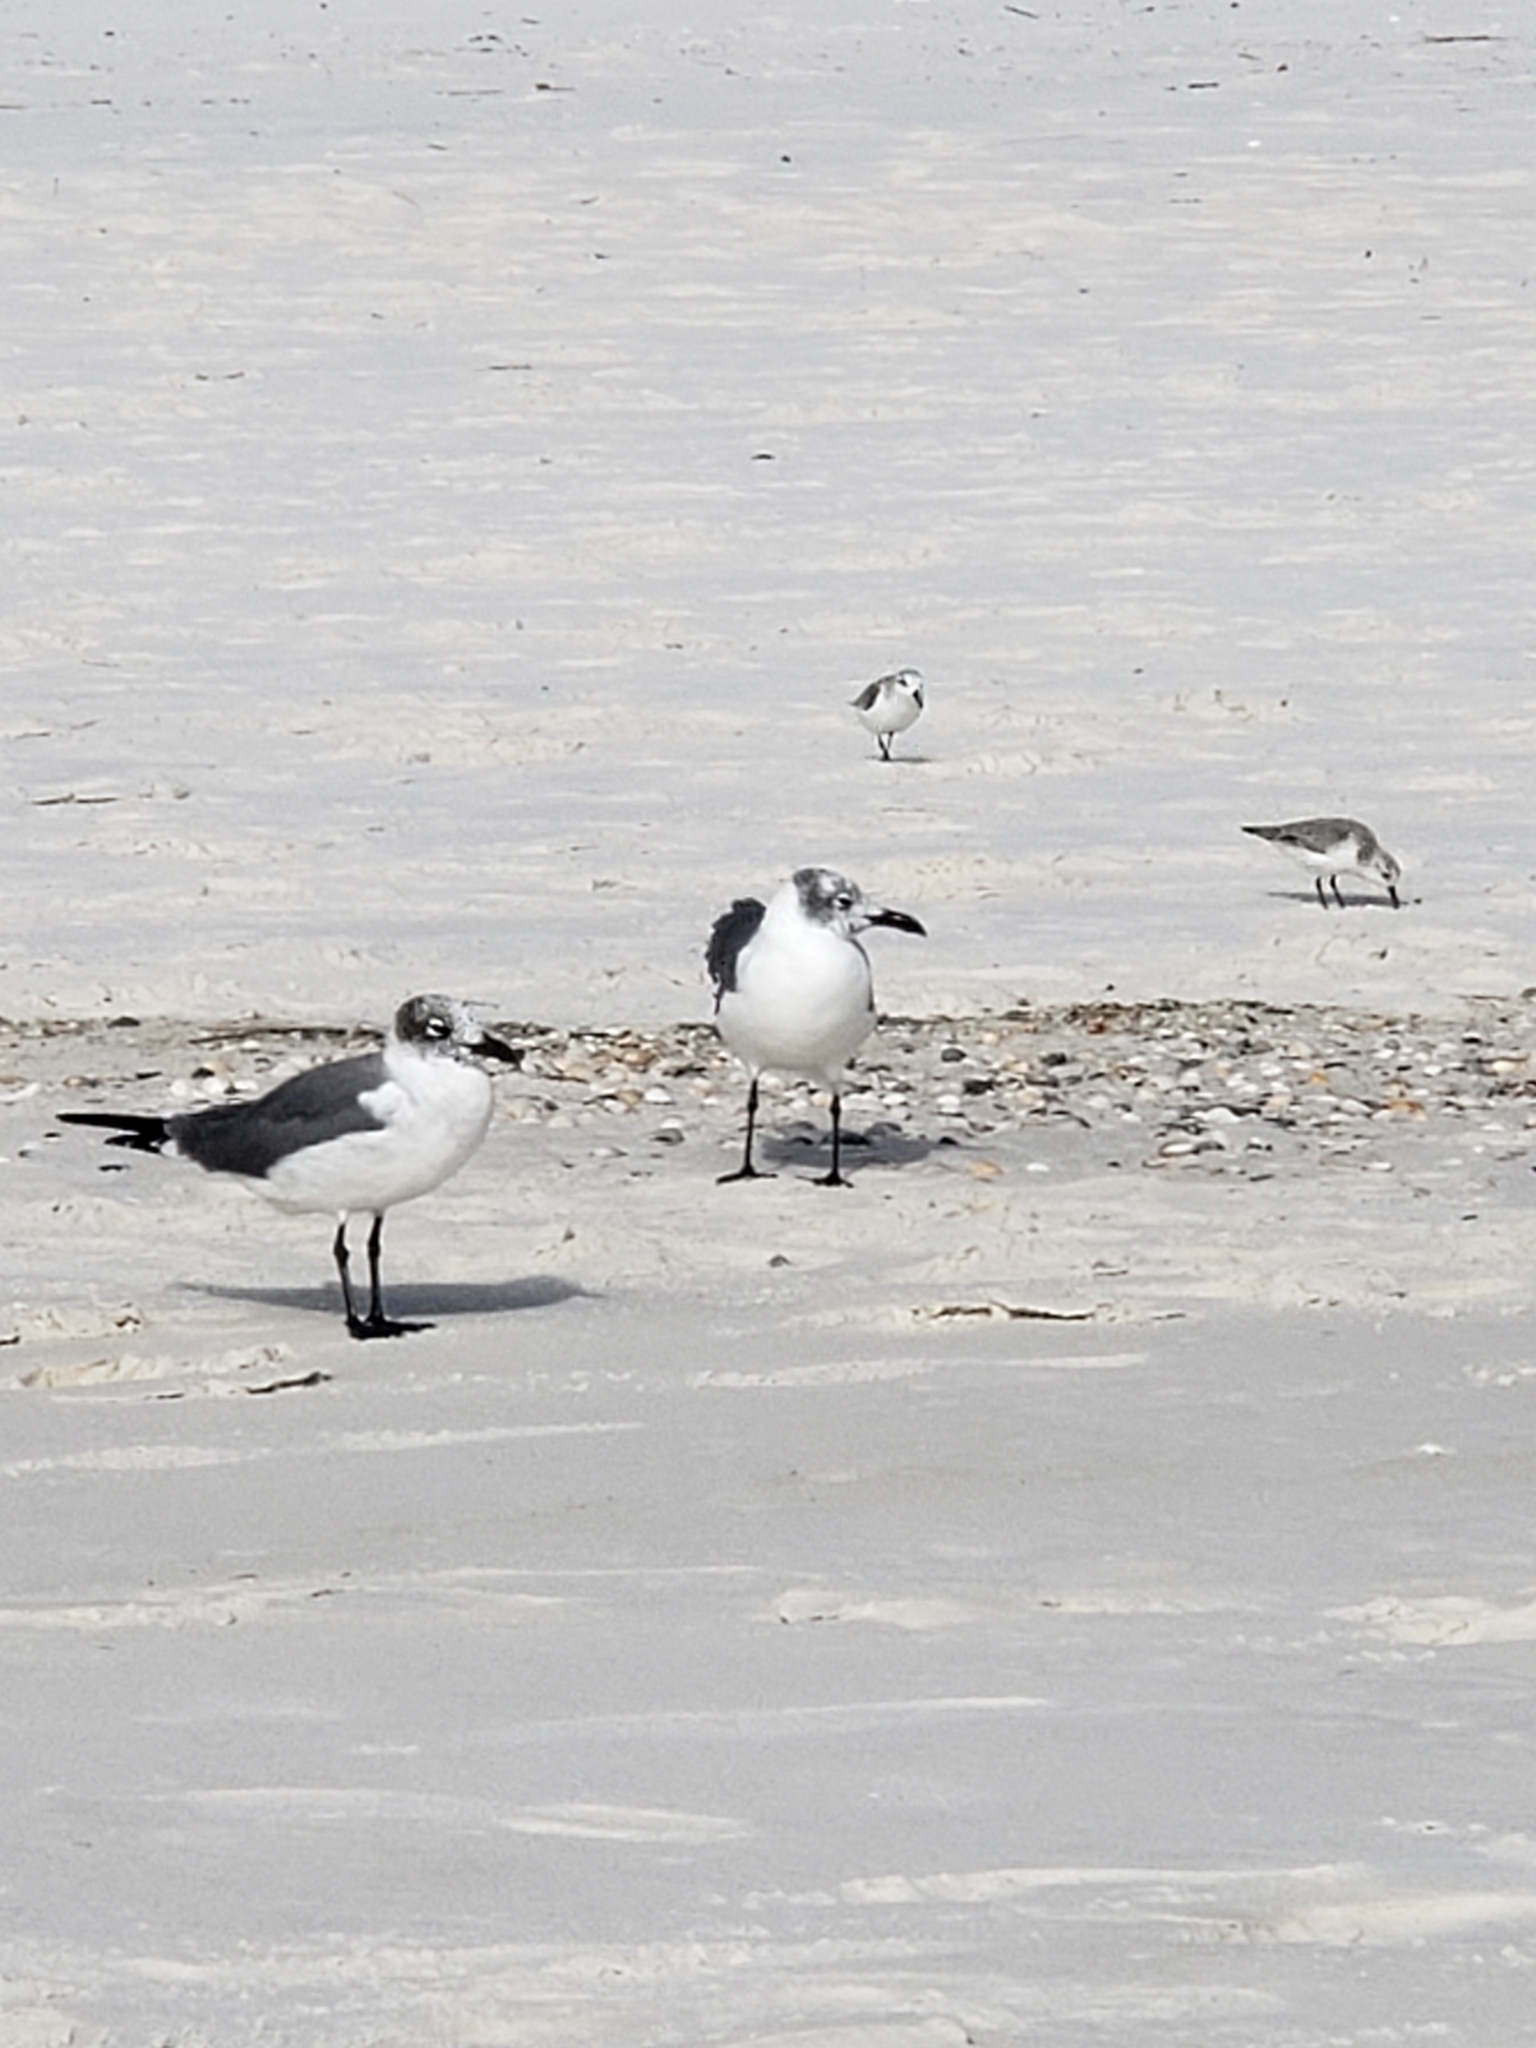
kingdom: Animalia
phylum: Chordata
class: Aves
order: Charadriiformes
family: Laridae
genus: Leucophaeus
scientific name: Leucophaeus atricilla
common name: Laughing gull
